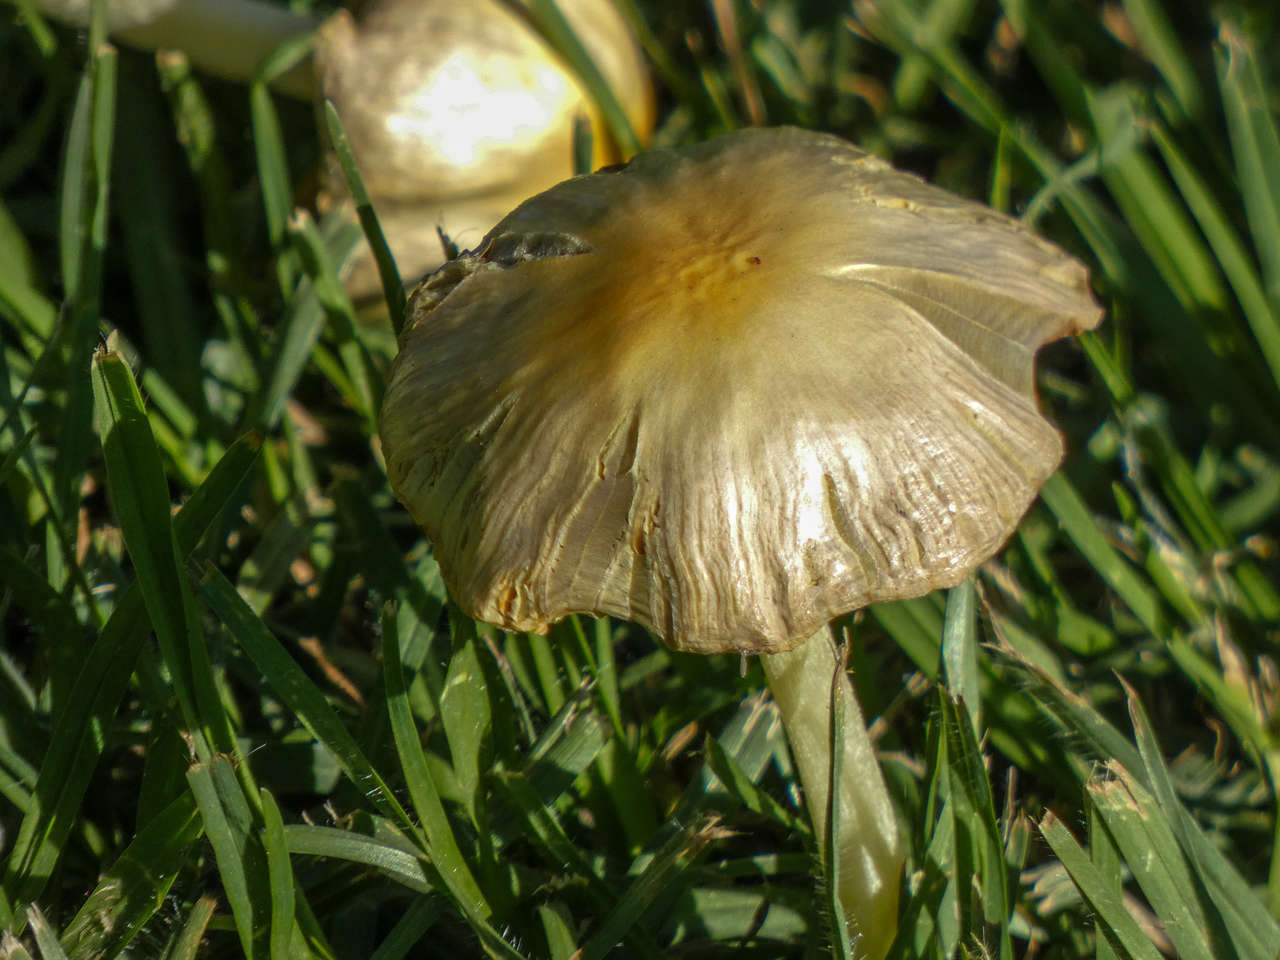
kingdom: Fungi
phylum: Basidiomycota
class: Agaricomycetes
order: Agaricales
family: Bolbitiaceae
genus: Bolbitius
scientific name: Bolbitius titubans
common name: Yellow fieldcap
